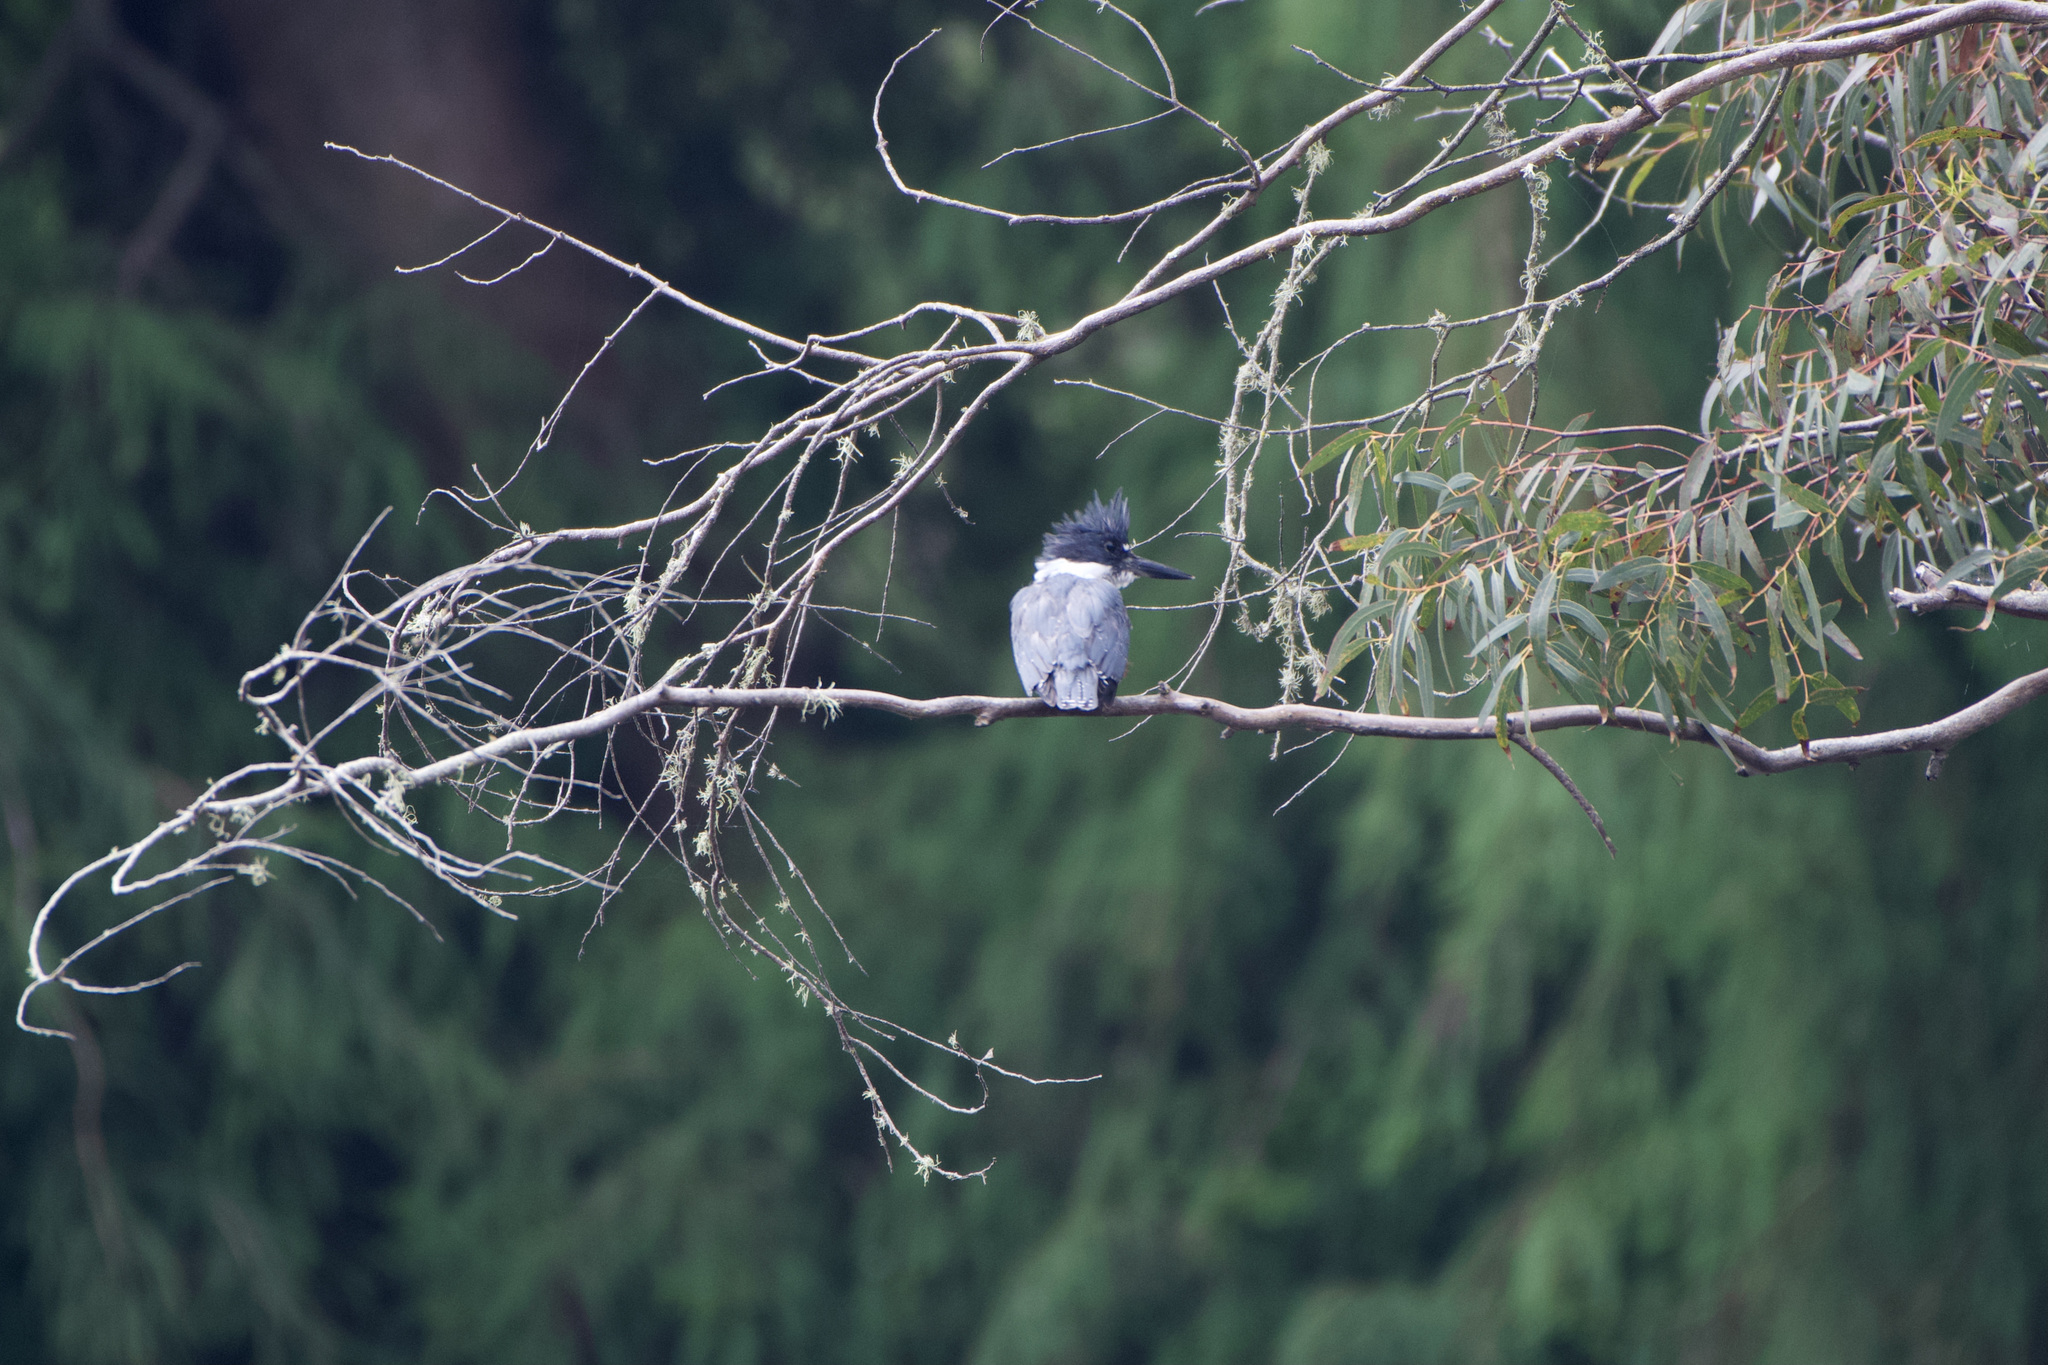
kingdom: Animalia
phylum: Chordata
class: Aves
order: Coraciiformes
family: Alcedinidae
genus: Megaceryle
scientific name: Megaceryle alcyon
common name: Belted kingfisher
